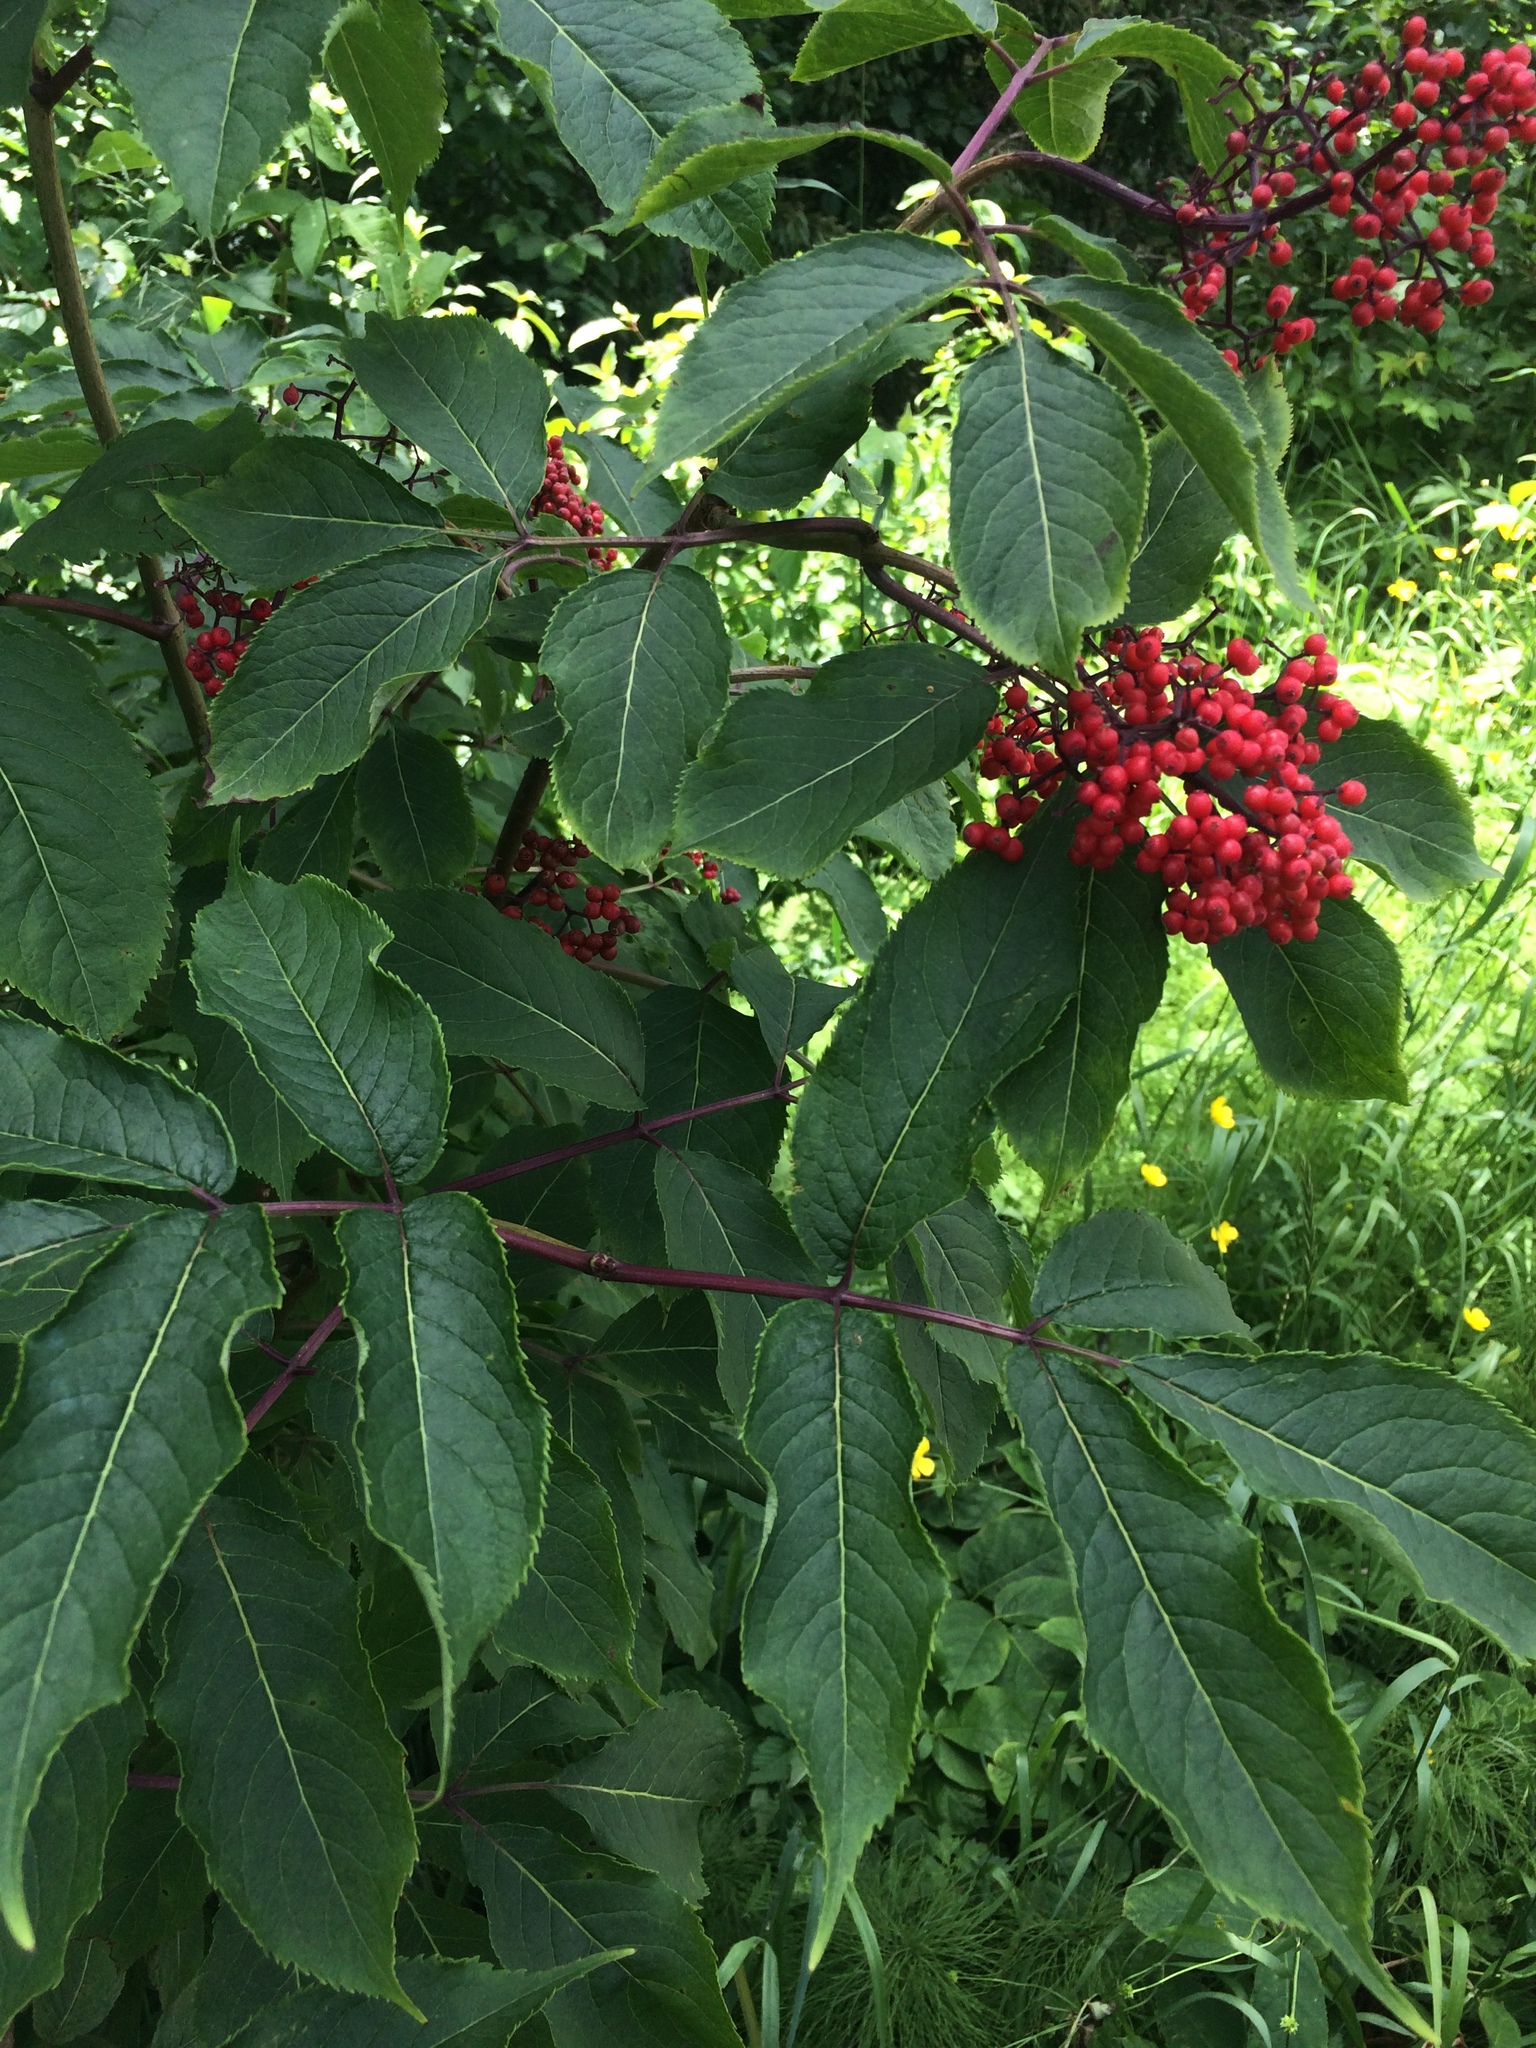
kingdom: Plantae
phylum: Tracheophyta
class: Magnoliopsida
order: Dipsacales
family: Viburnaceae
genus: Sambucus
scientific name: Sambucus racemosa
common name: Red-berried elder
